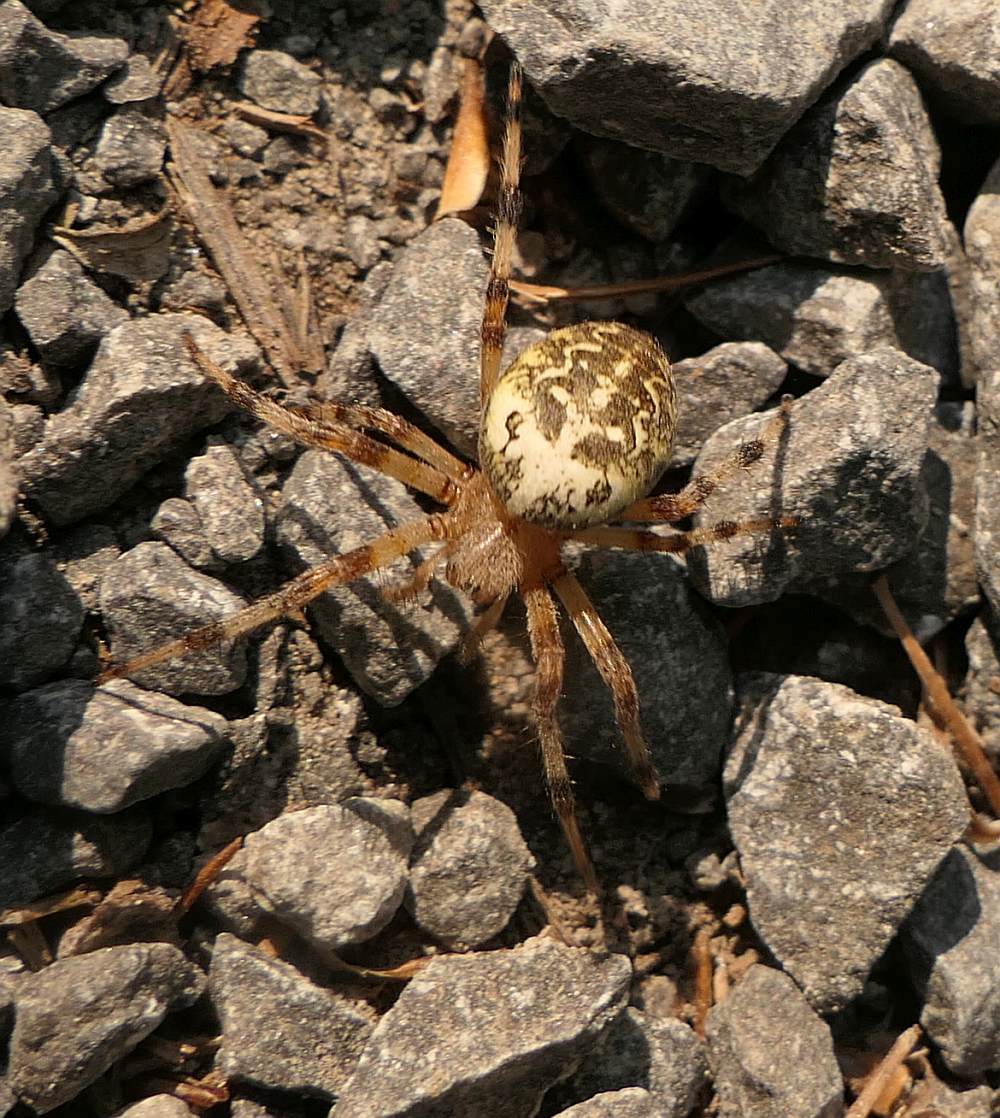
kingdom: Animalia
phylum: Arthropoda
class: Arachnida
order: Araneae
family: Araneidae
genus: Araneus
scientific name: Araneus marmoreus
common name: Marbled orbweaver
